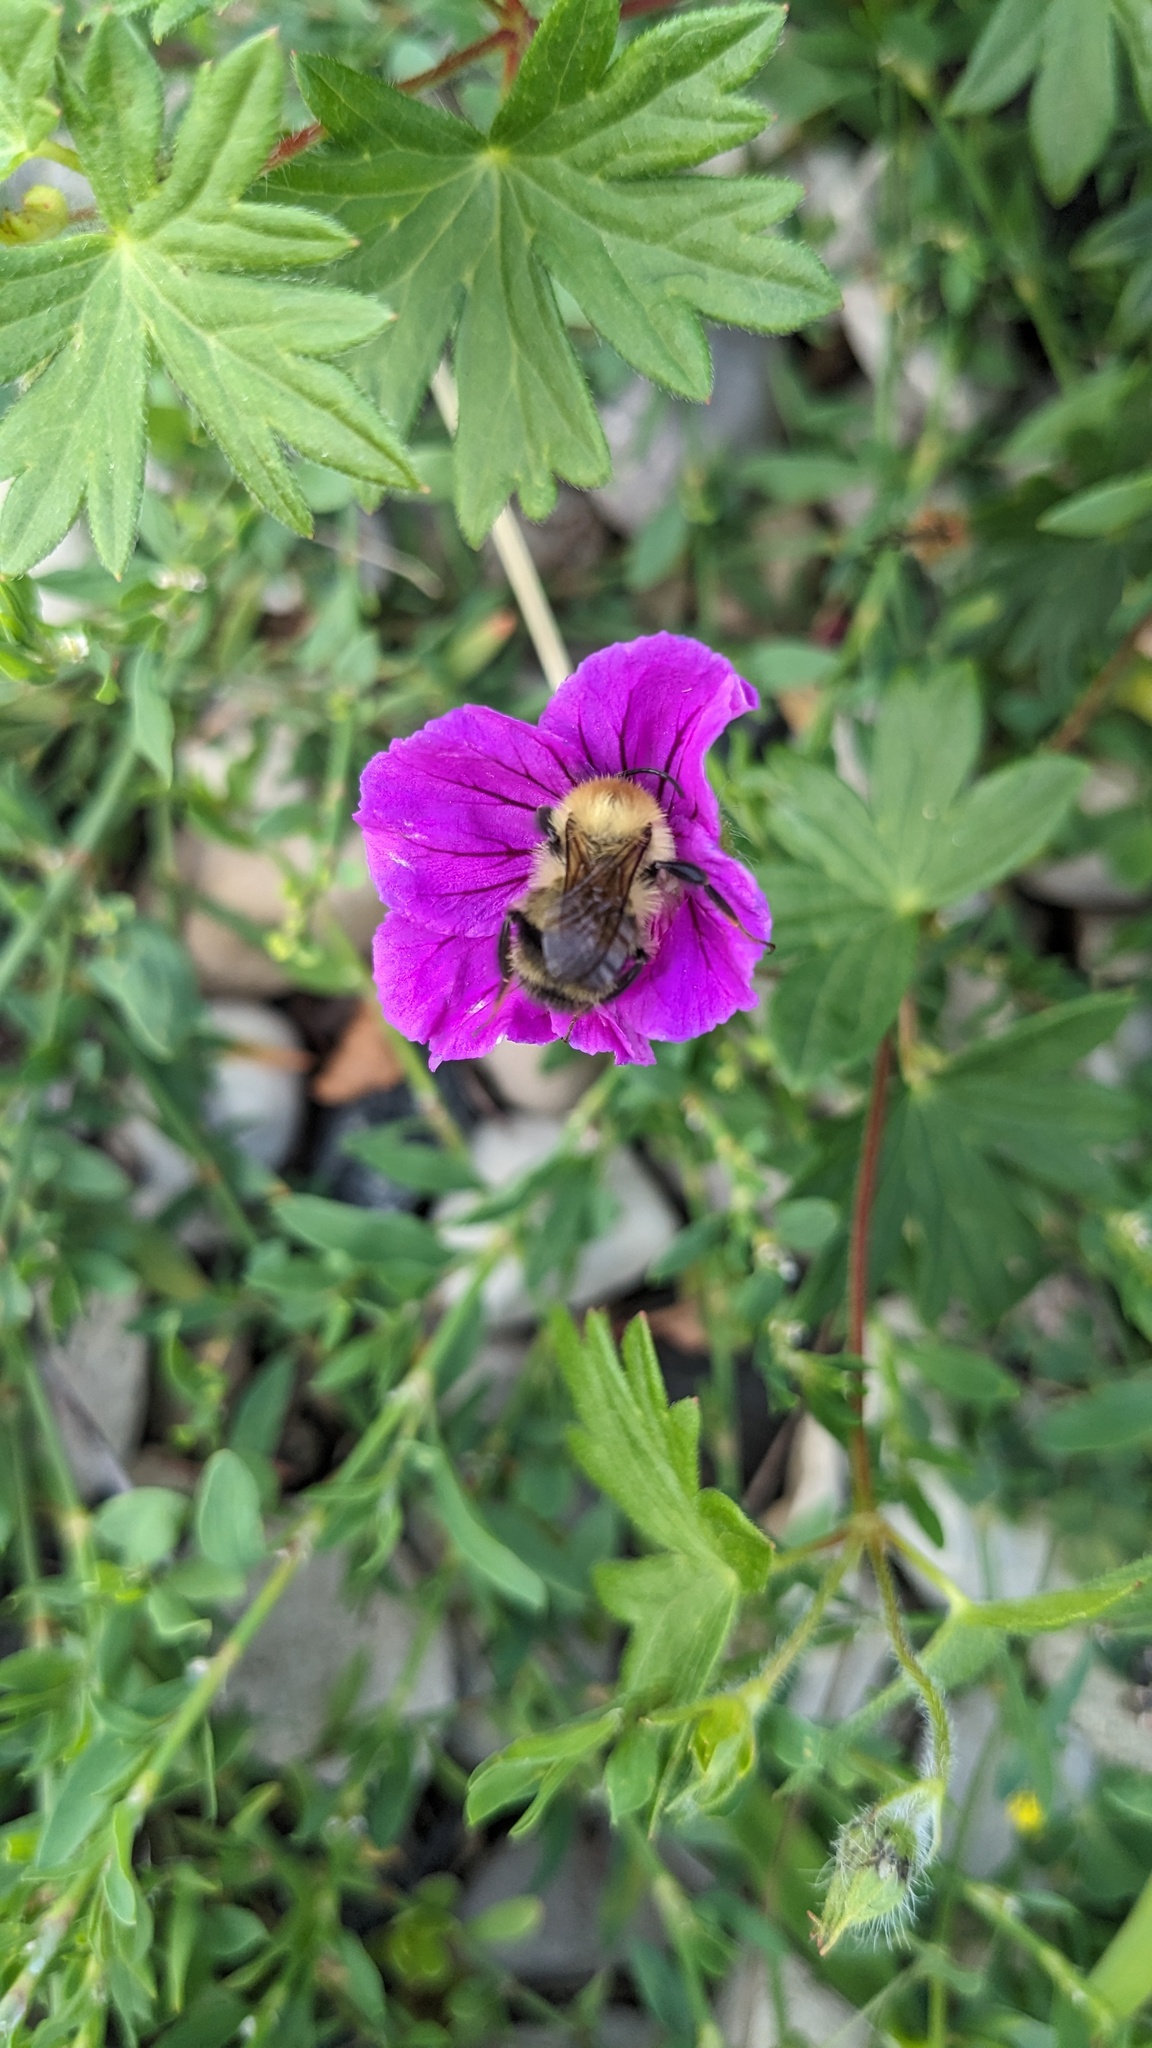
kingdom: Animalia
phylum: Arthropoda
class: Insecta
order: Hymenoptera
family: Apidae
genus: Bombus
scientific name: Bombus bimaculatus
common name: Two-spotted bumble bee
